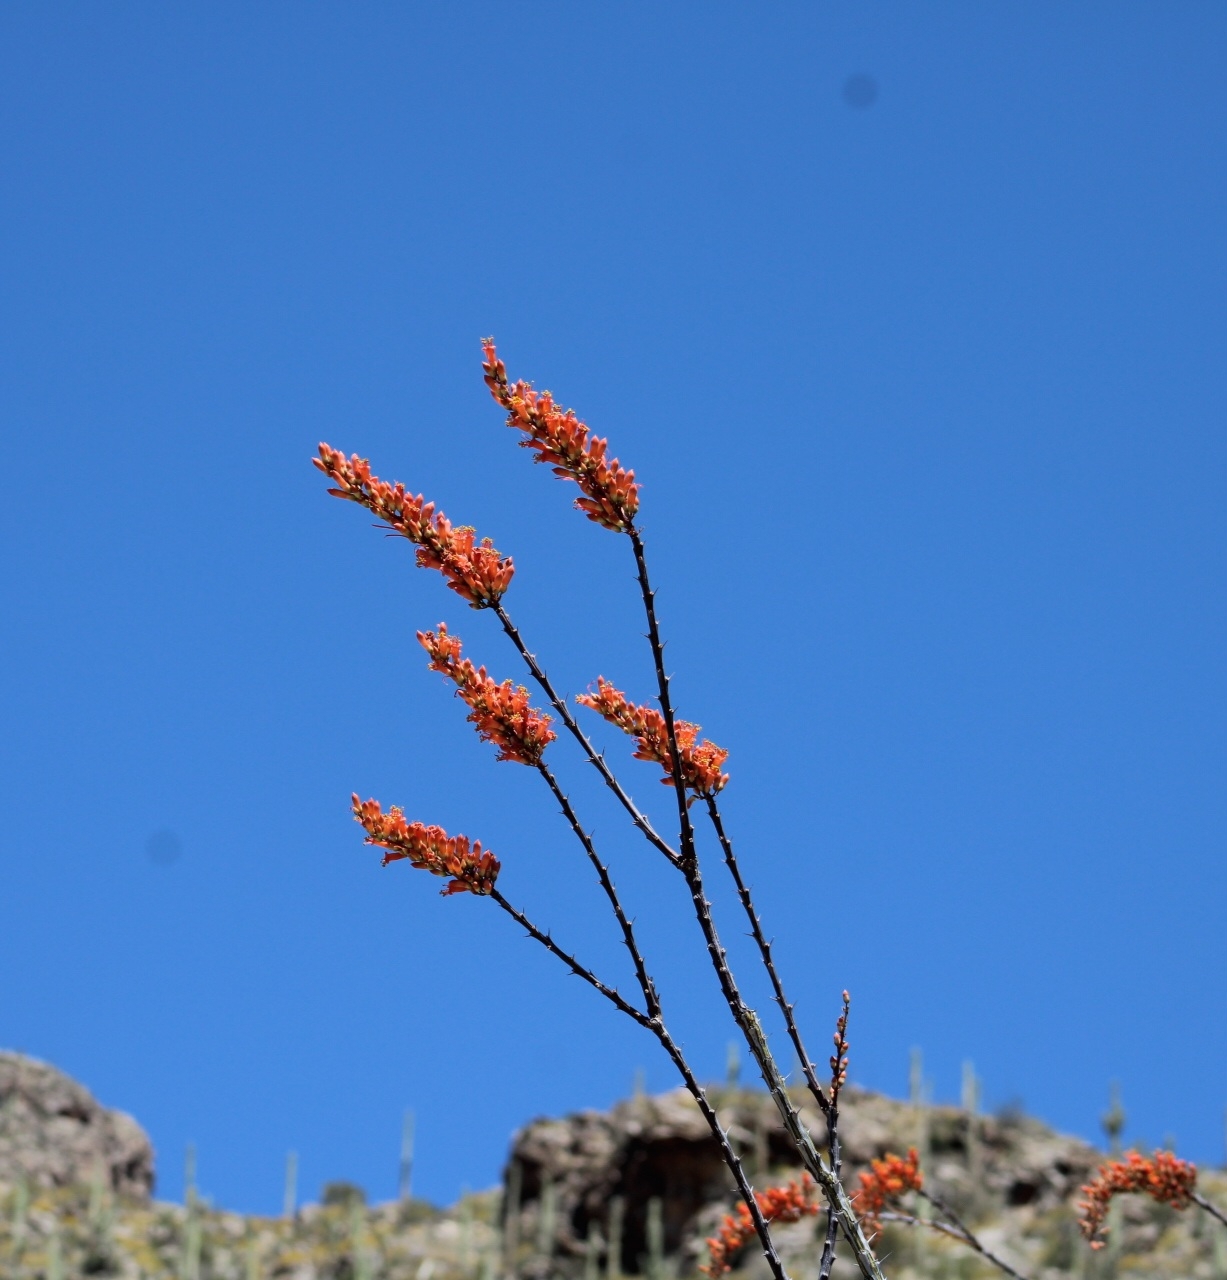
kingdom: Plantae
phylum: Tracheophyta
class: Magnoliopsida
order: Ericales
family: Fouquieriaceae
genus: Fouquieria
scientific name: Fouquieria splendens
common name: Vine-cactus
